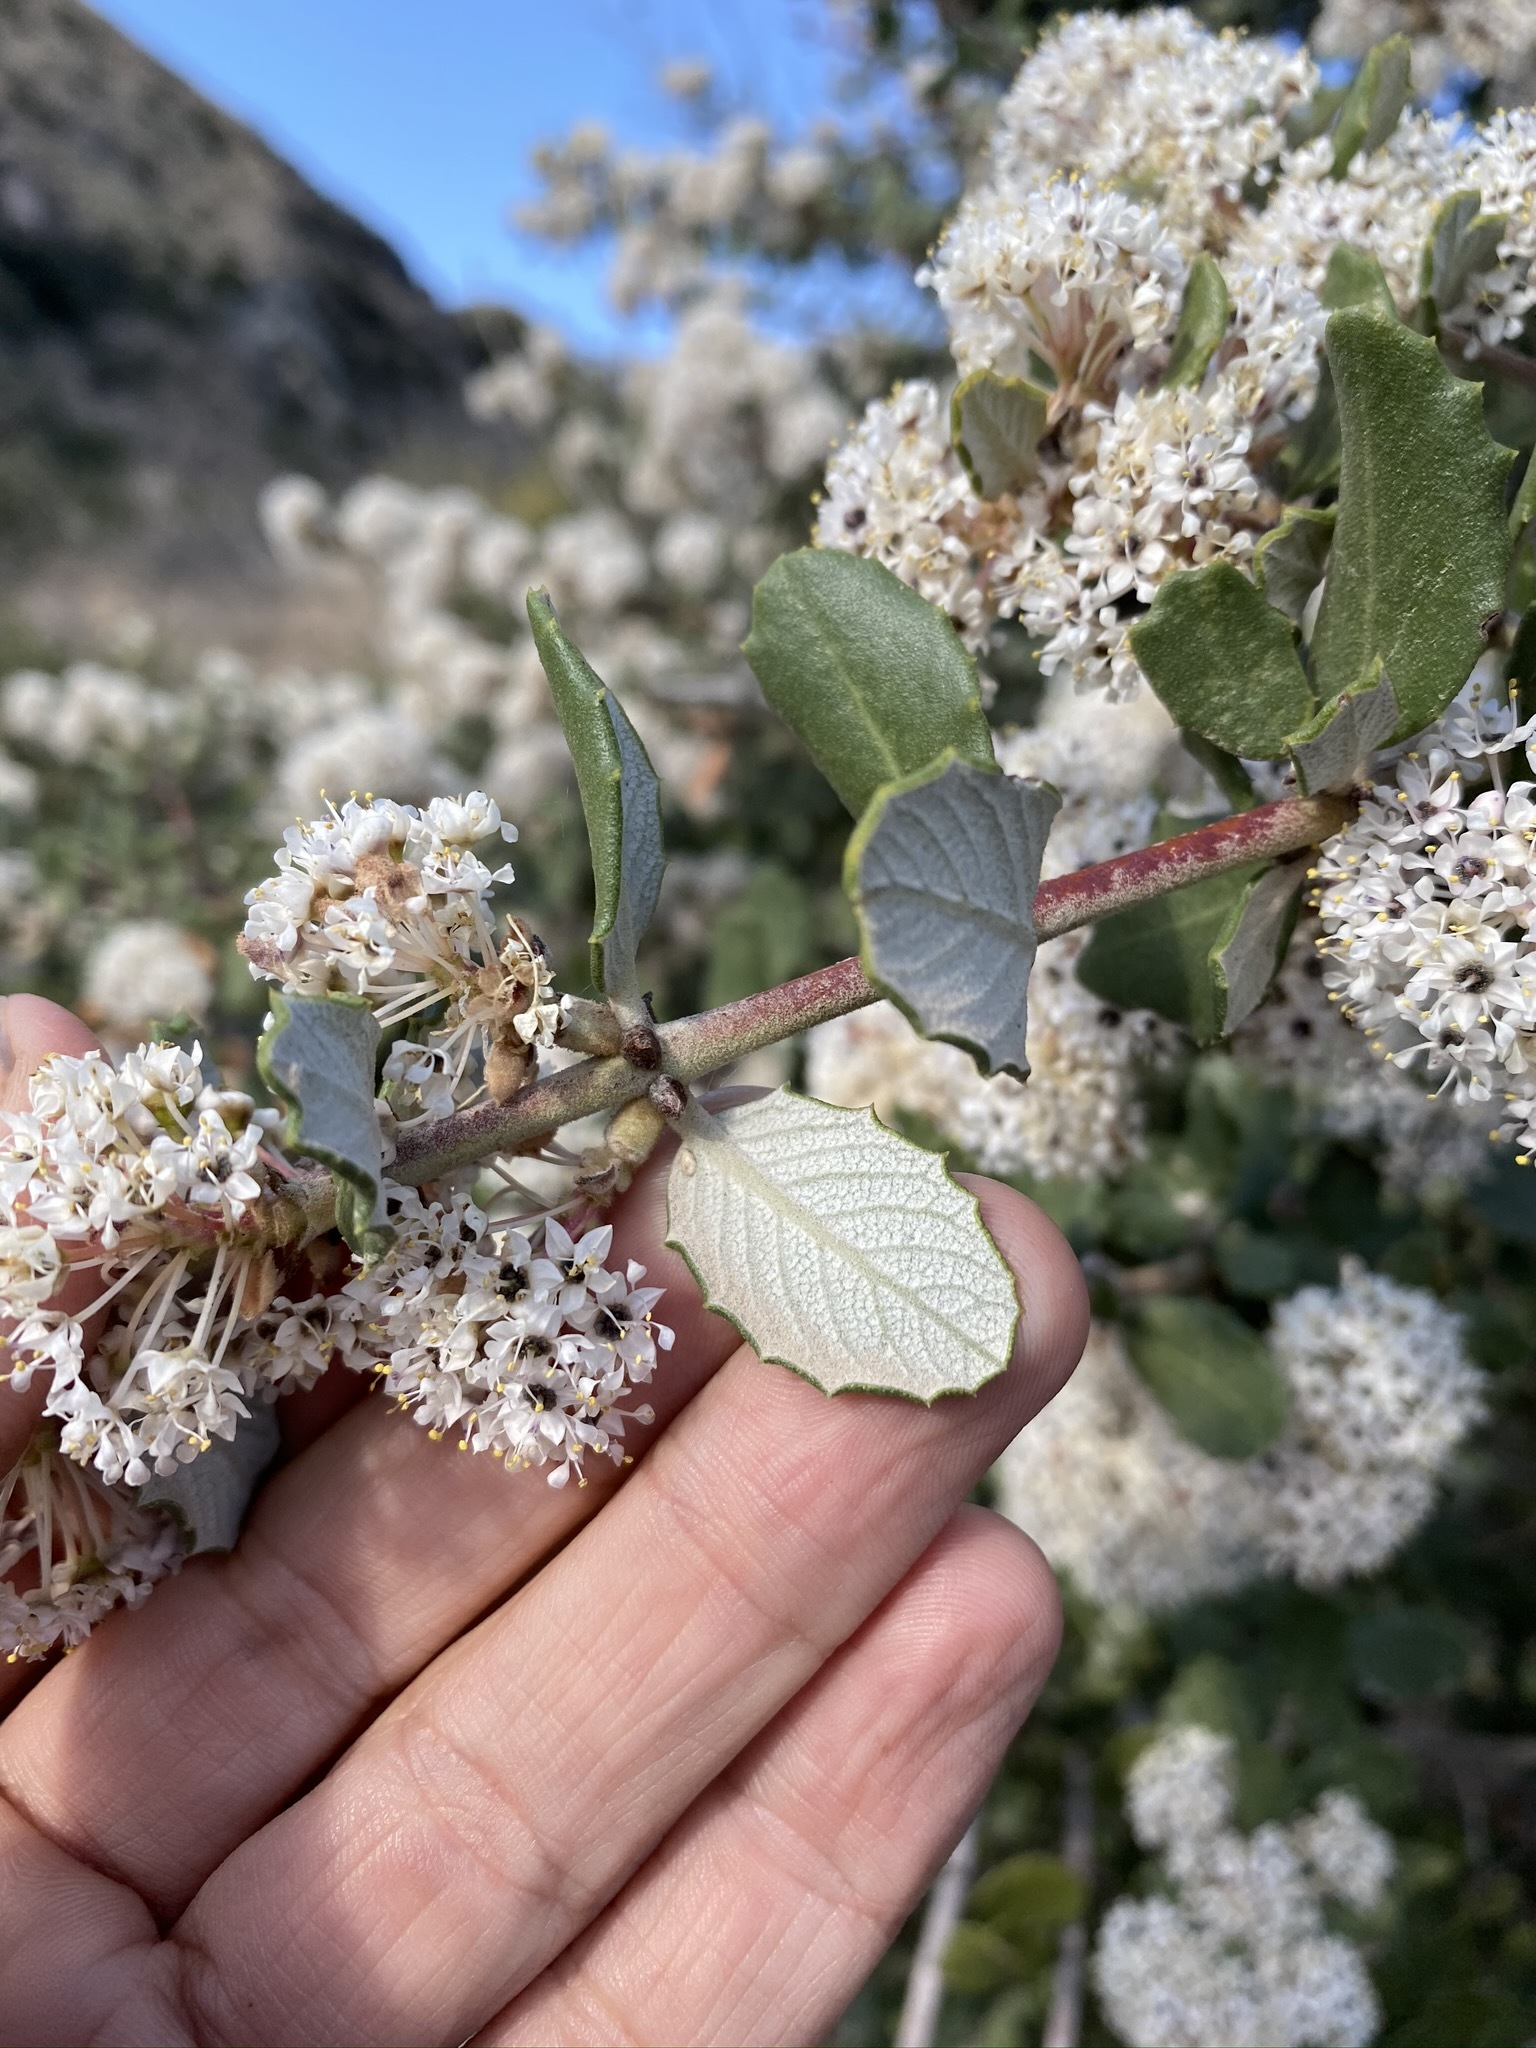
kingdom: Plantae
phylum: Tracheophyta
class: Magnoliopsida
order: Rosales
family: Rhamnaceae
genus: Ceanothus
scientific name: Ceanothus crassifolius
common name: Hoaryleaf ceanothus
